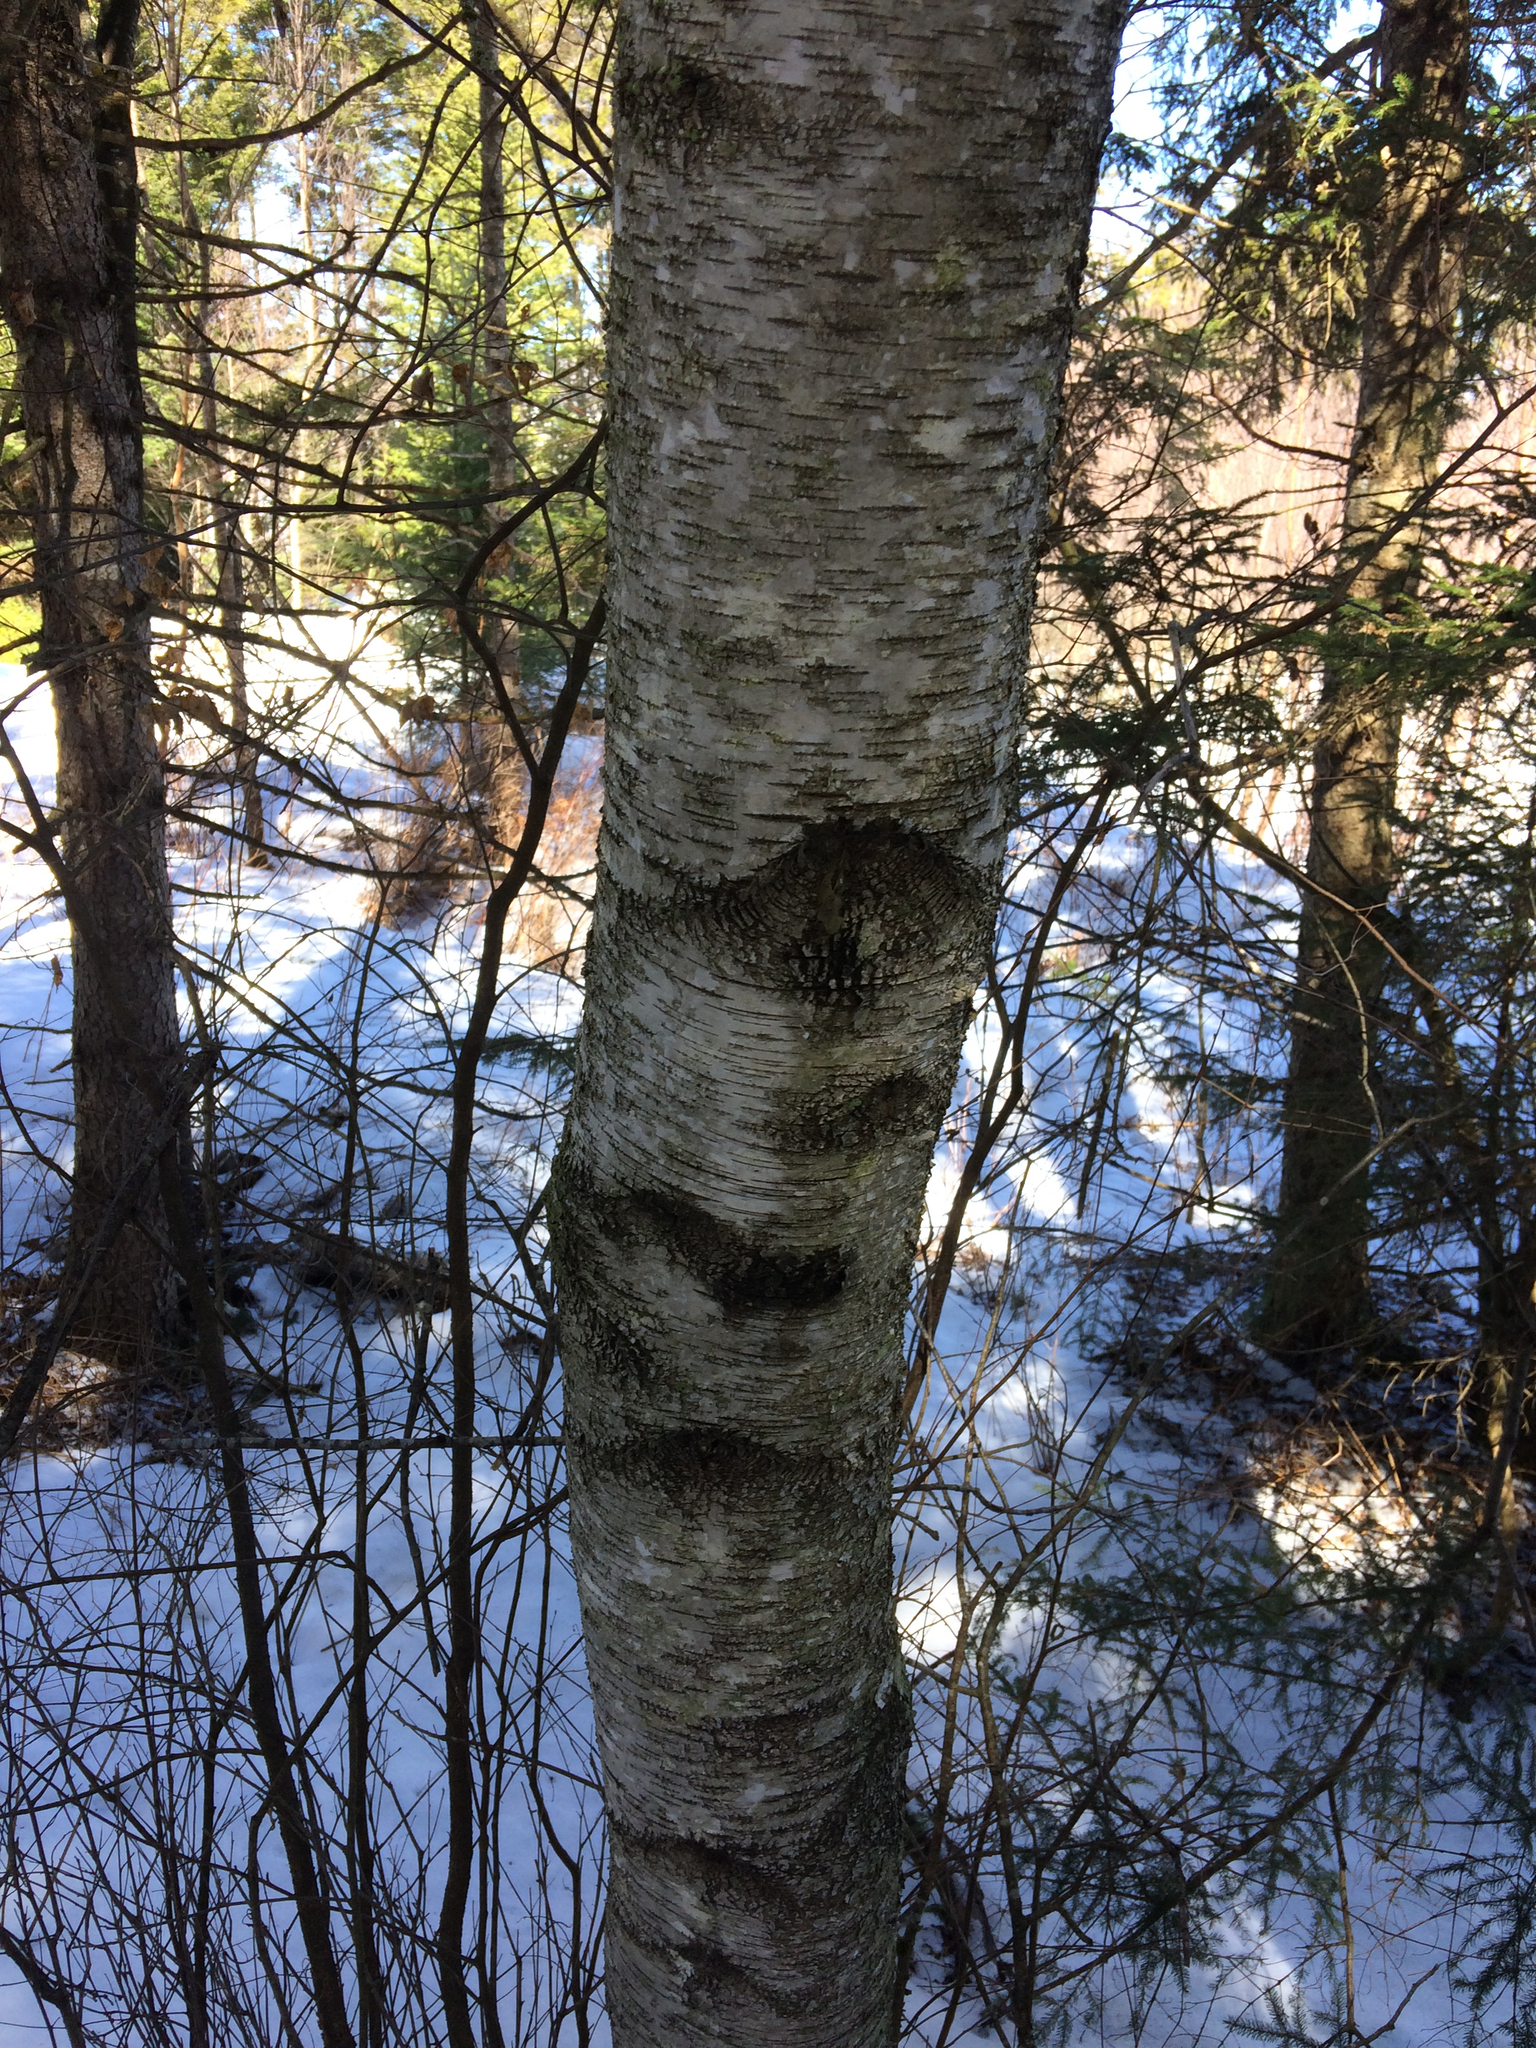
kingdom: Plantae
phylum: Tracheophyta
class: Magnoliopsida
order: Fagales
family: Betulaceae
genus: Betula
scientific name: Betula populifolia
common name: Fire birch
